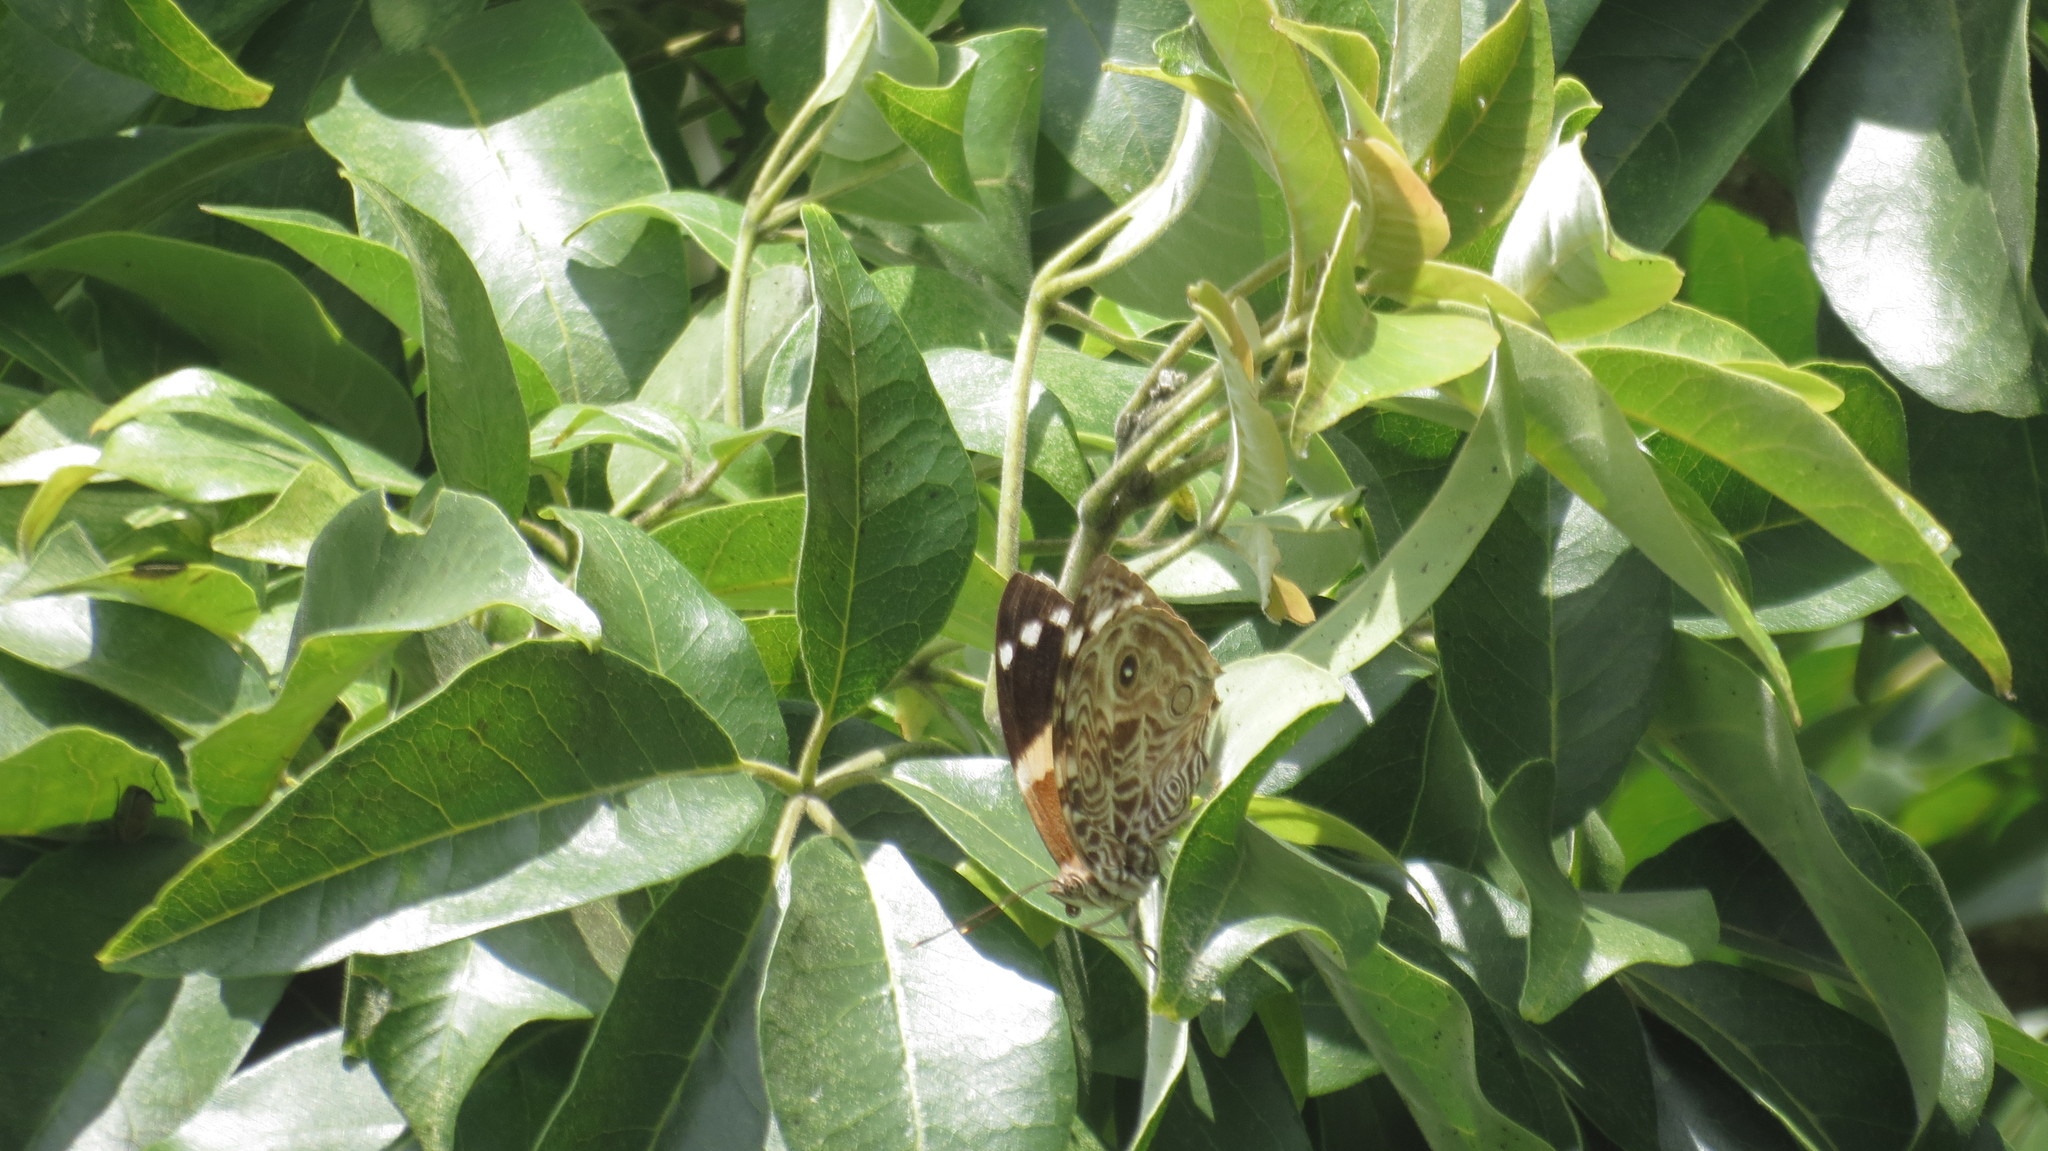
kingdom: Animalia
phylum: Arthropoda
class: Insecta
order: Lepidoptera
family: Nymphalidae
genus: Smyrna
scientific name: Smyrna blomfildia
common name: Blomfild's beauty
